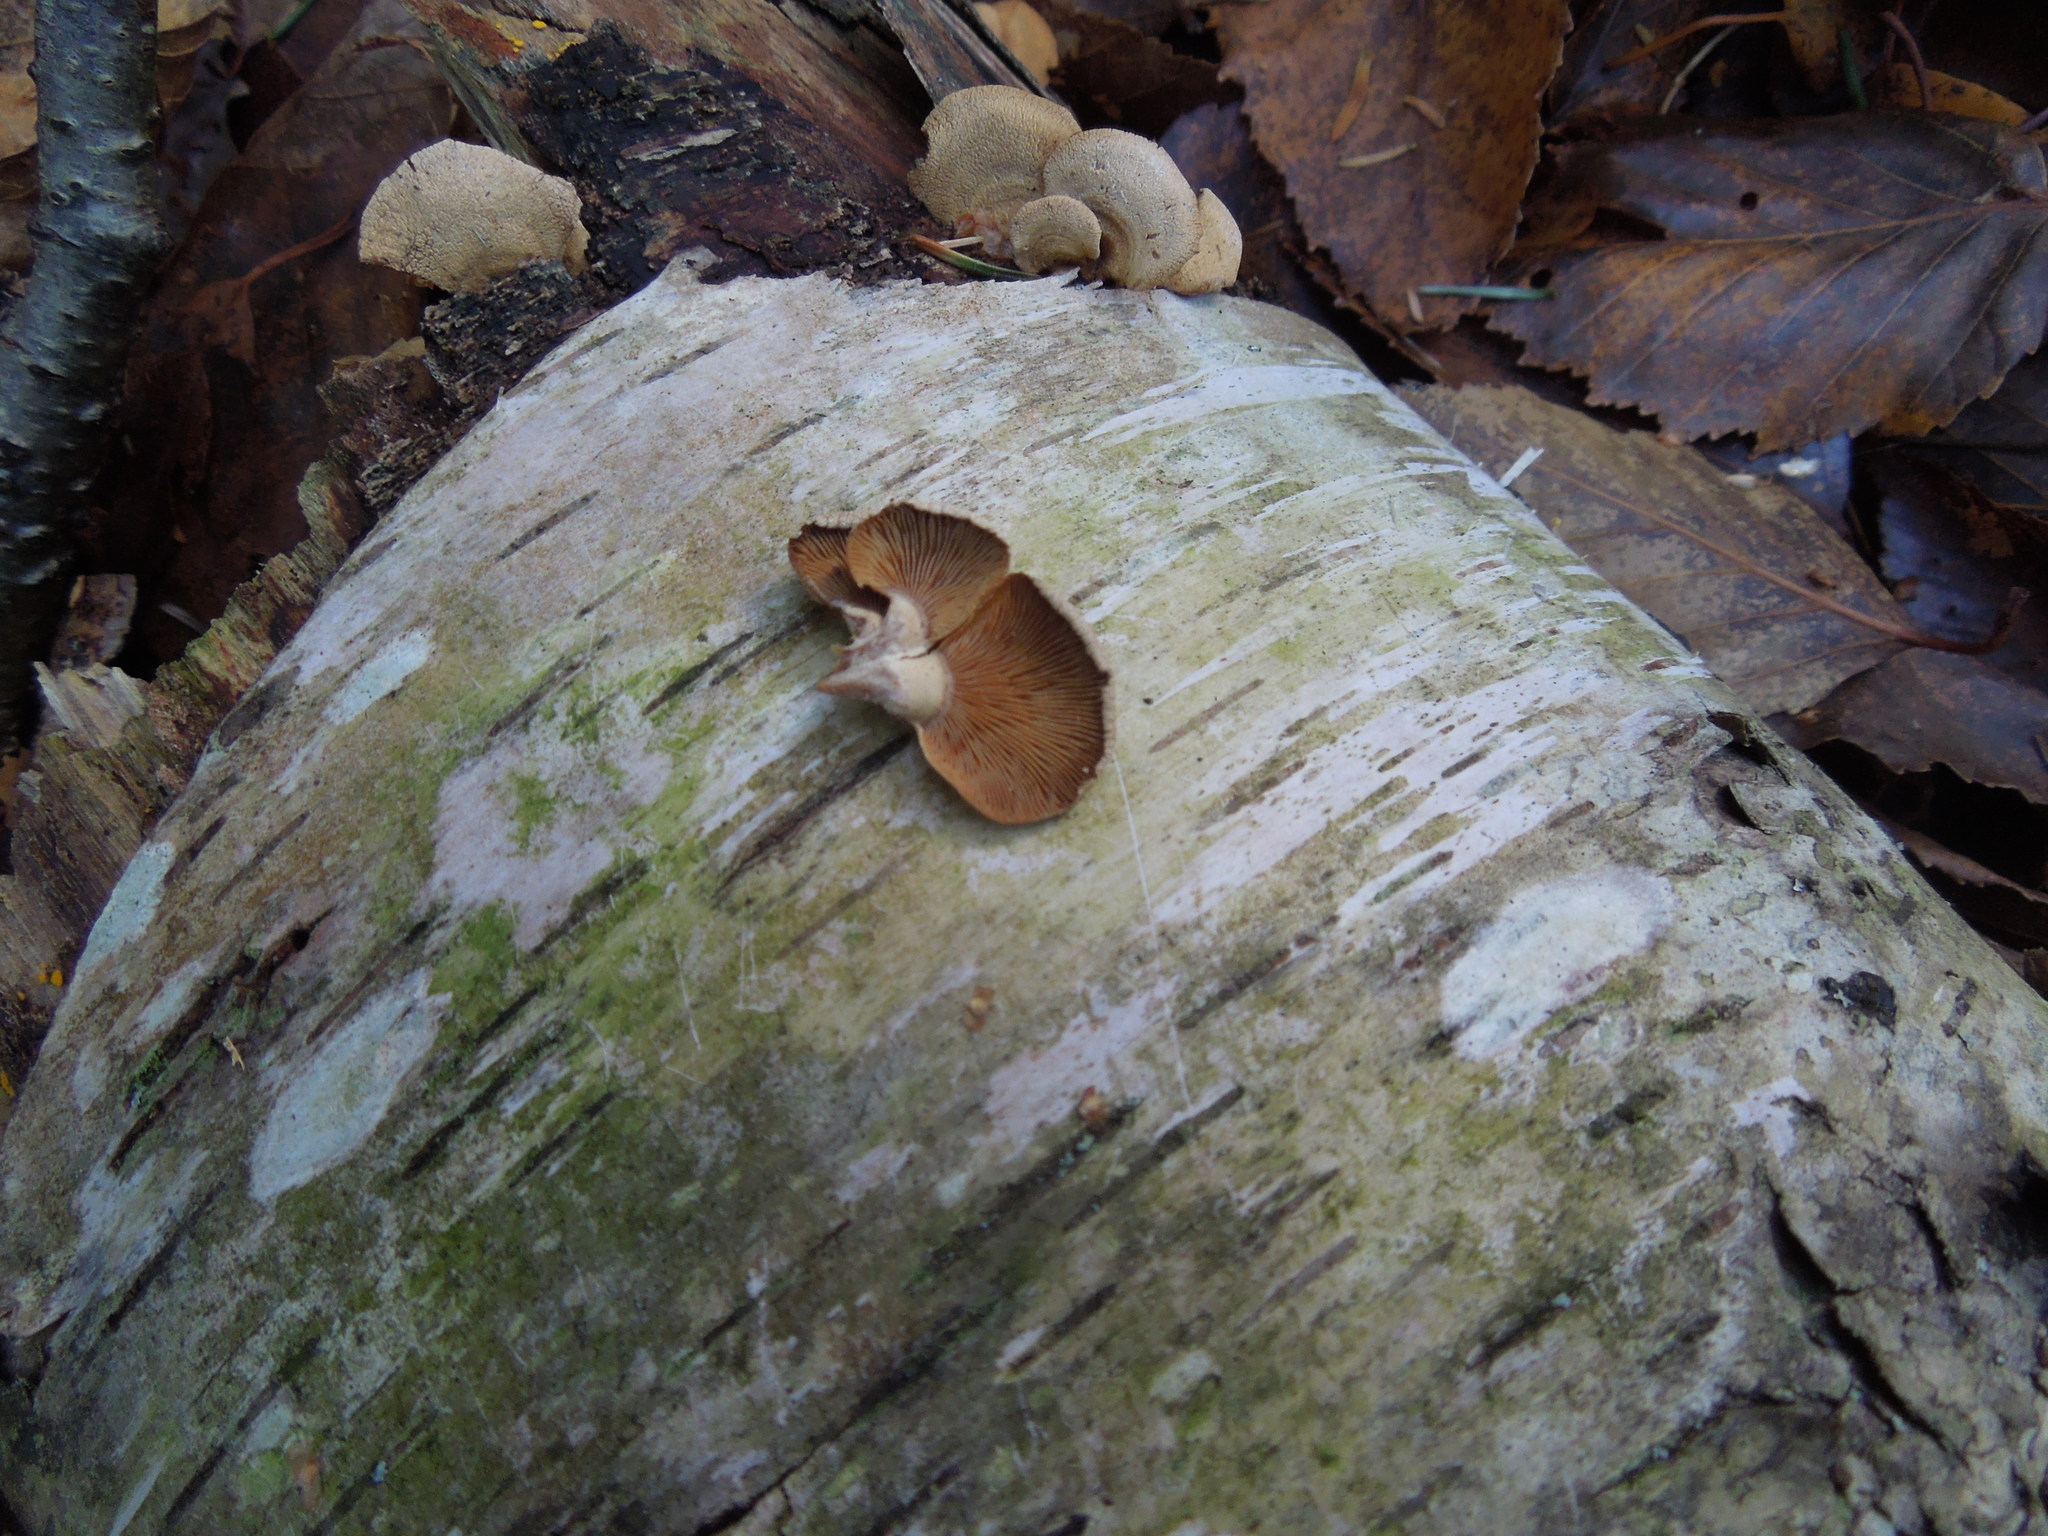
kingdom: Fungi
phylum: Basidiomycota
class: Agaricomycetes
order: Agaricales
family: Mycenaceae
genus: Panellus
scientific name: Panellus stipticus
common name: Bitter oysterling
